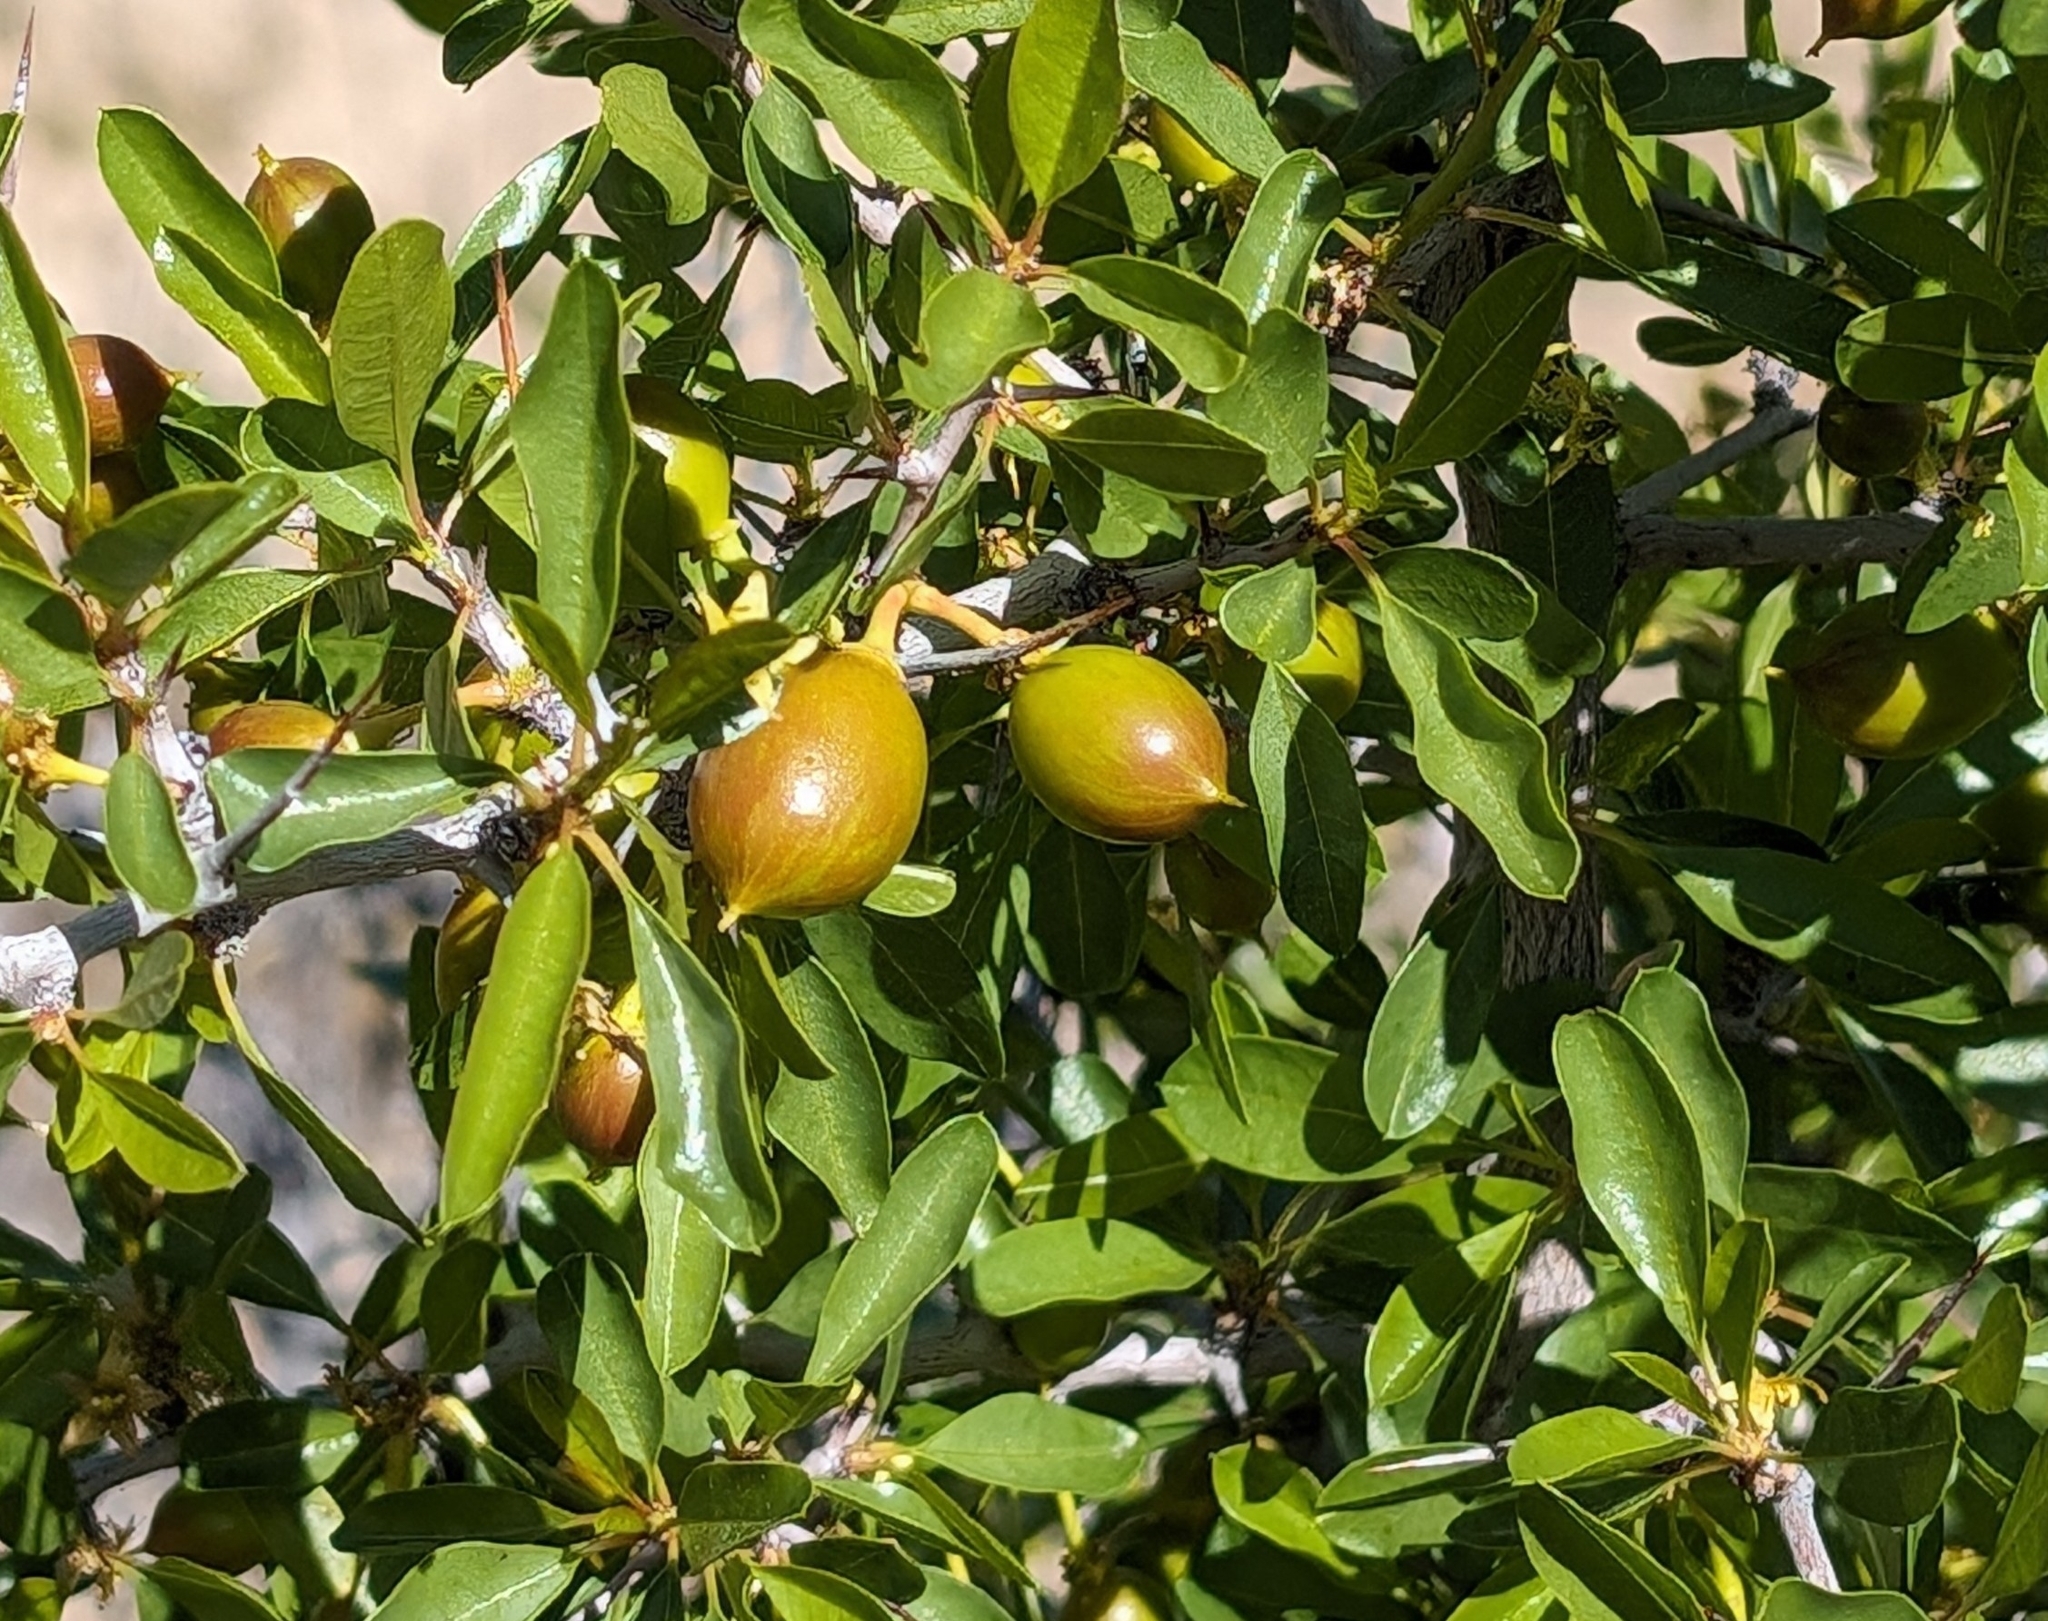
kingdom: Plantae
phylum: Tracheophyta
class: Magnoliopsida
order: Rosales
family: Rhamnaceae
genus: Pseudoziziphus
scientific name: Pseudoziziphus parryi
